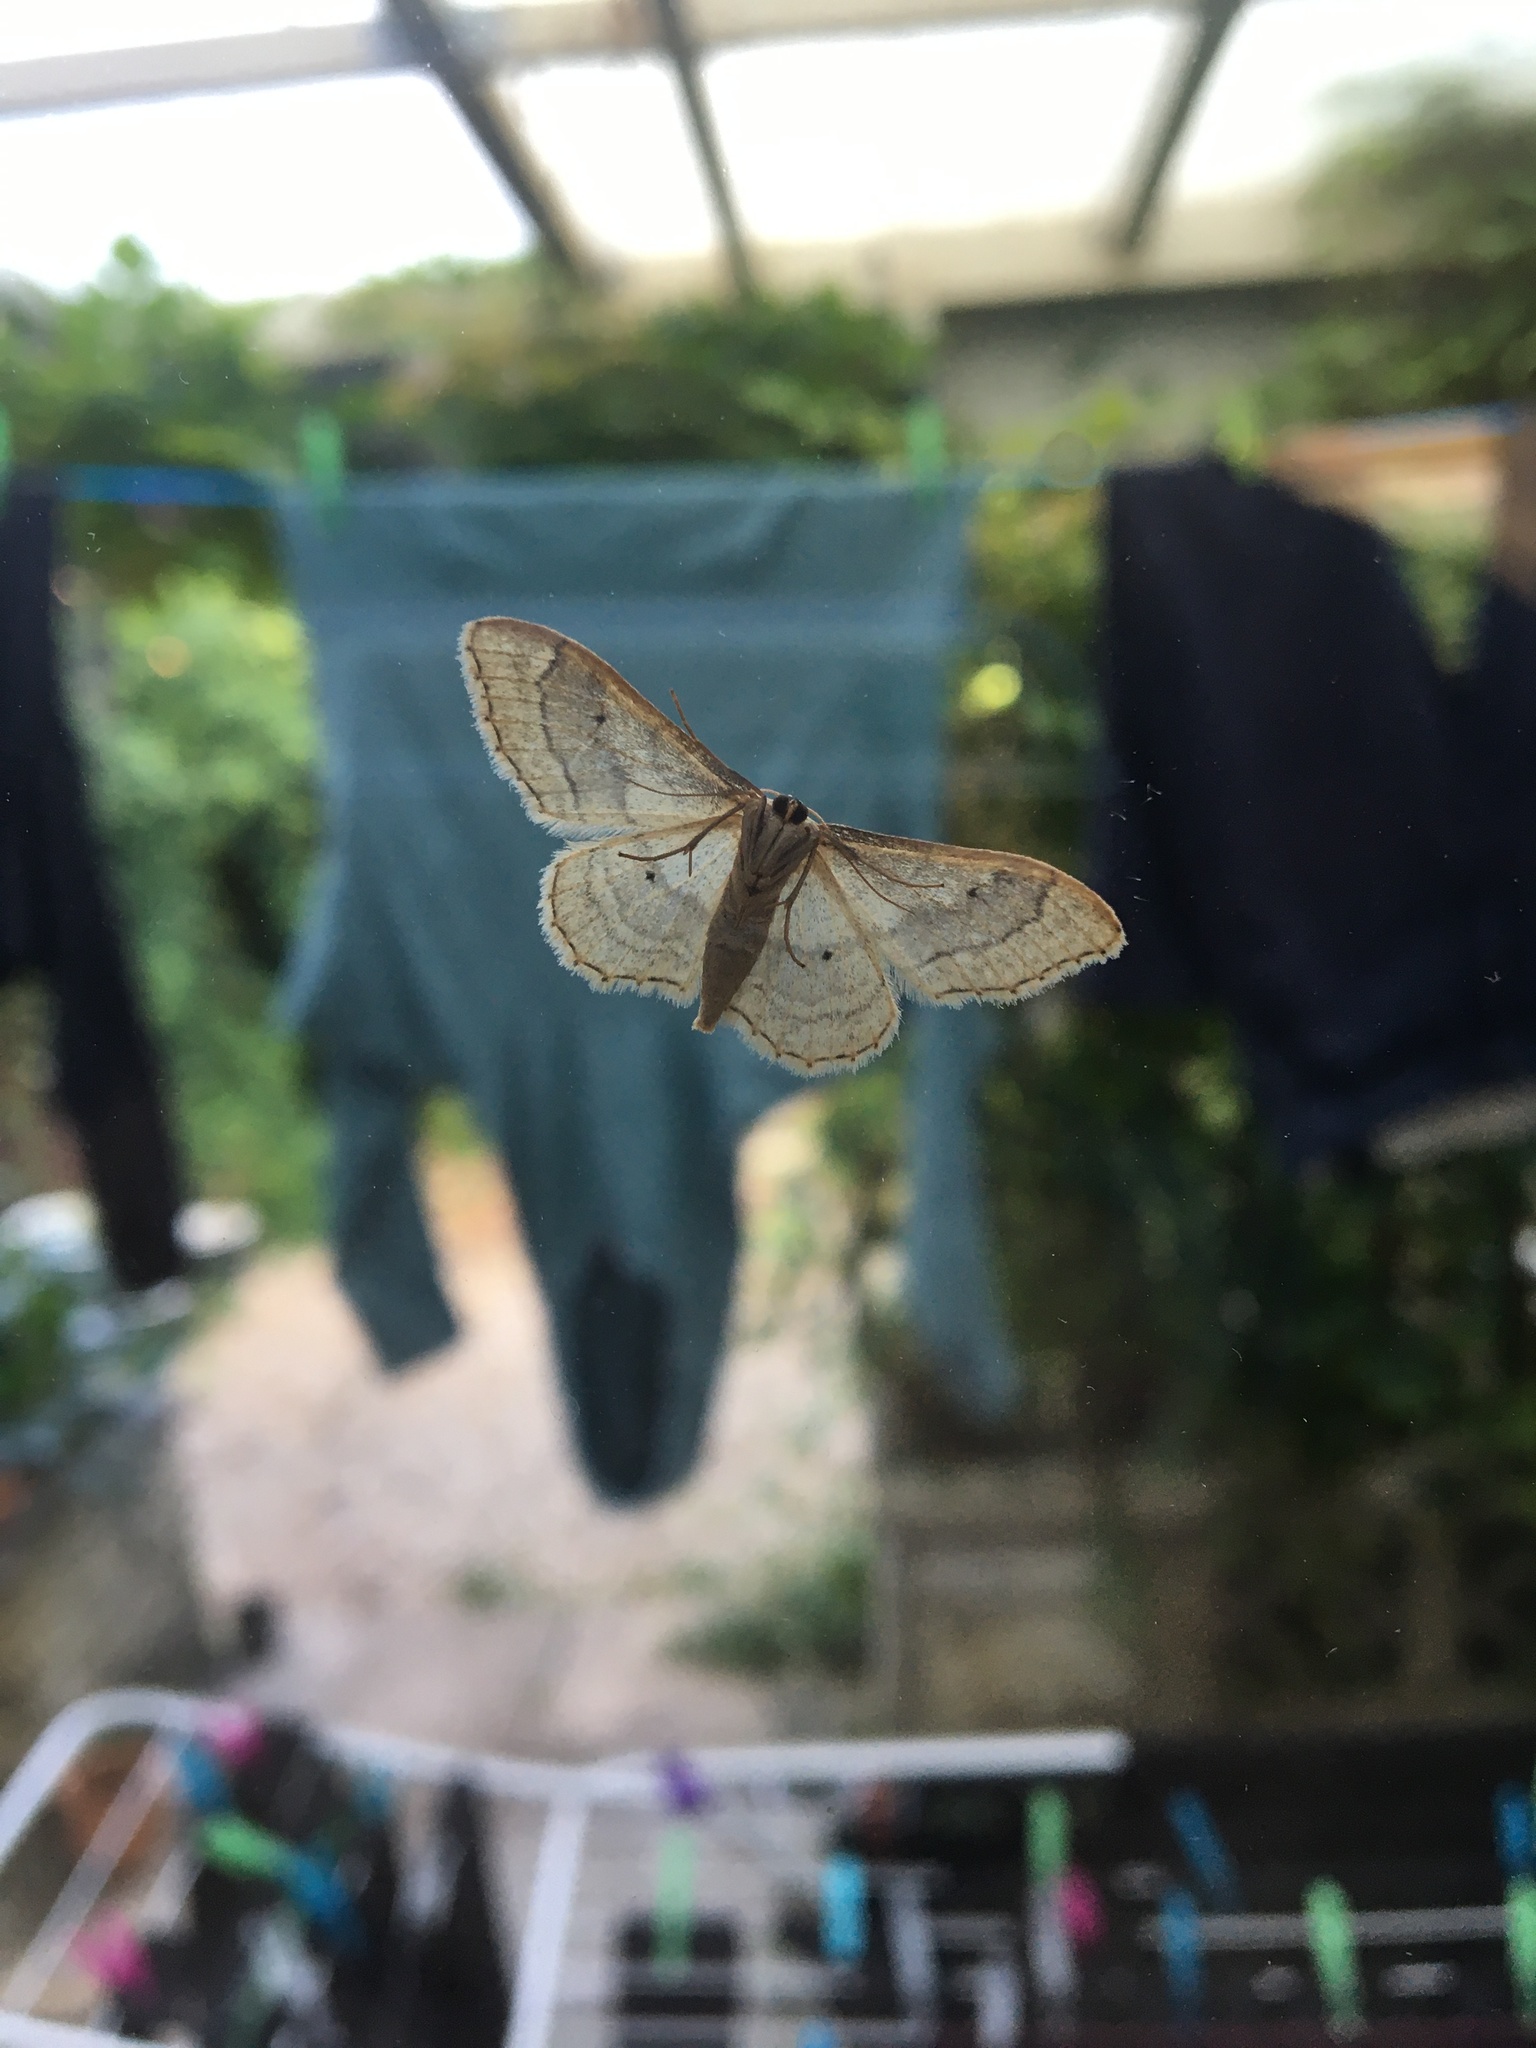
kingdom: Animalia
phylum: Arthropoda
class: Insecta
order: Lepidoptera
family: Geometridae
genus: Idaea
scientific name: Idaea aversata
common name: Riband wave
